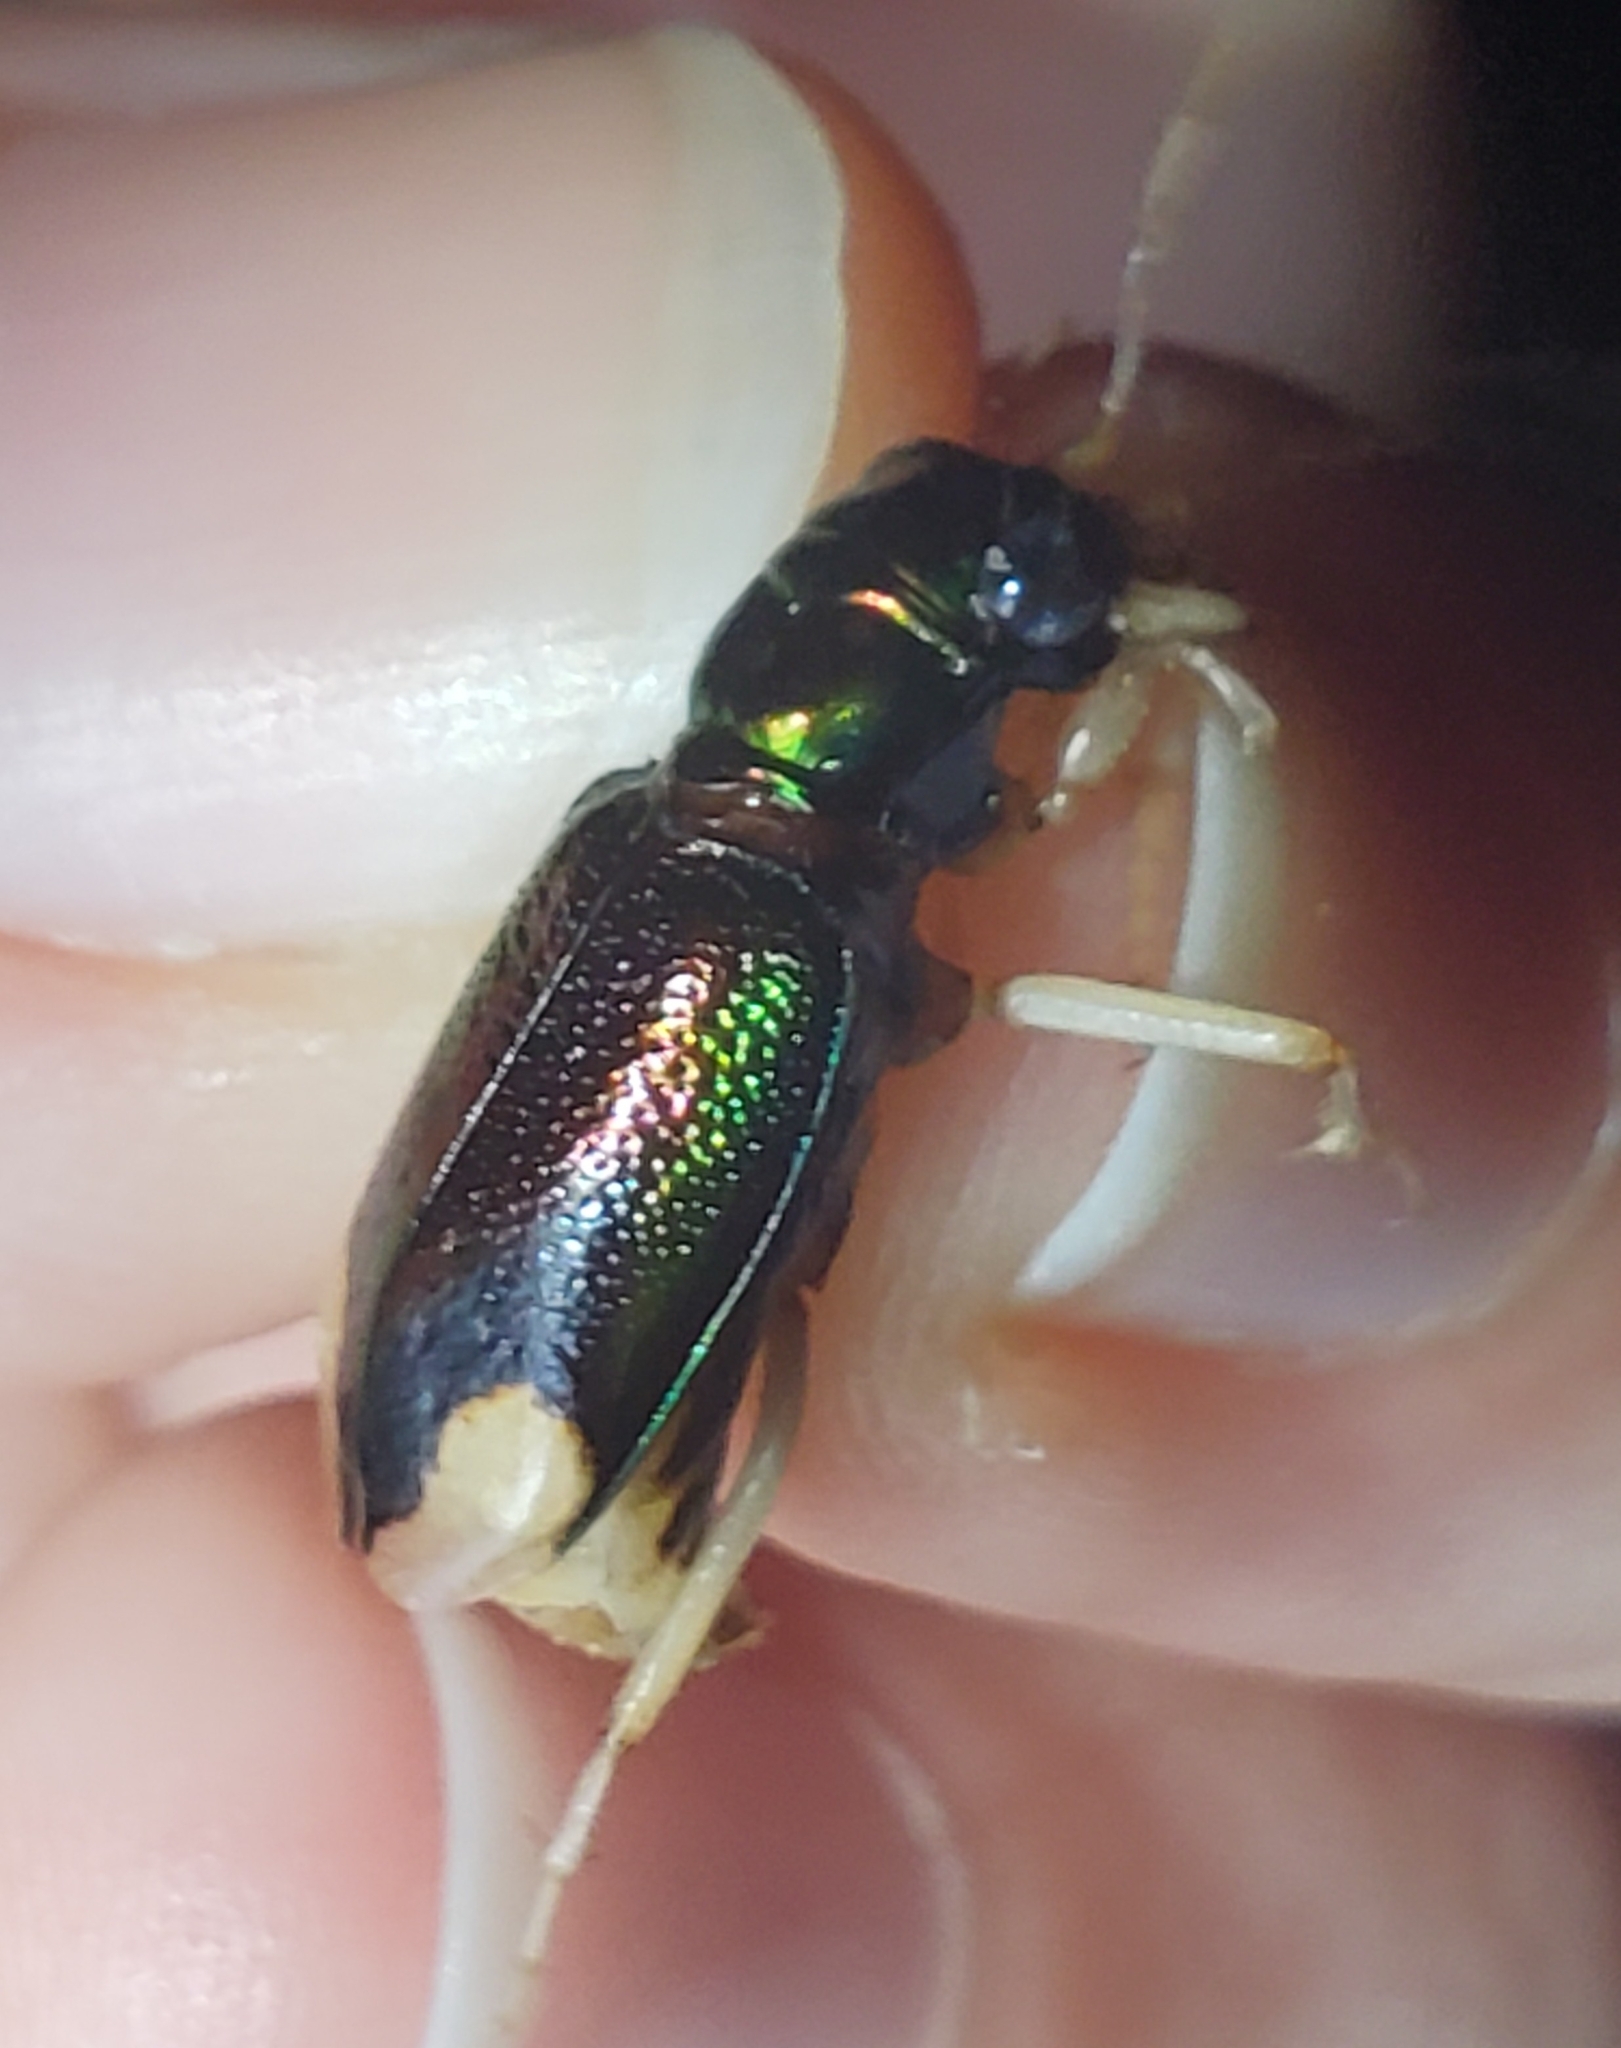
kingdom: Animalia
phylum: Arthropoda
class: Insecta
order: Coleoptera
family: Carabidae
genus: Tetracha
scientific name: Tetracha carolina
